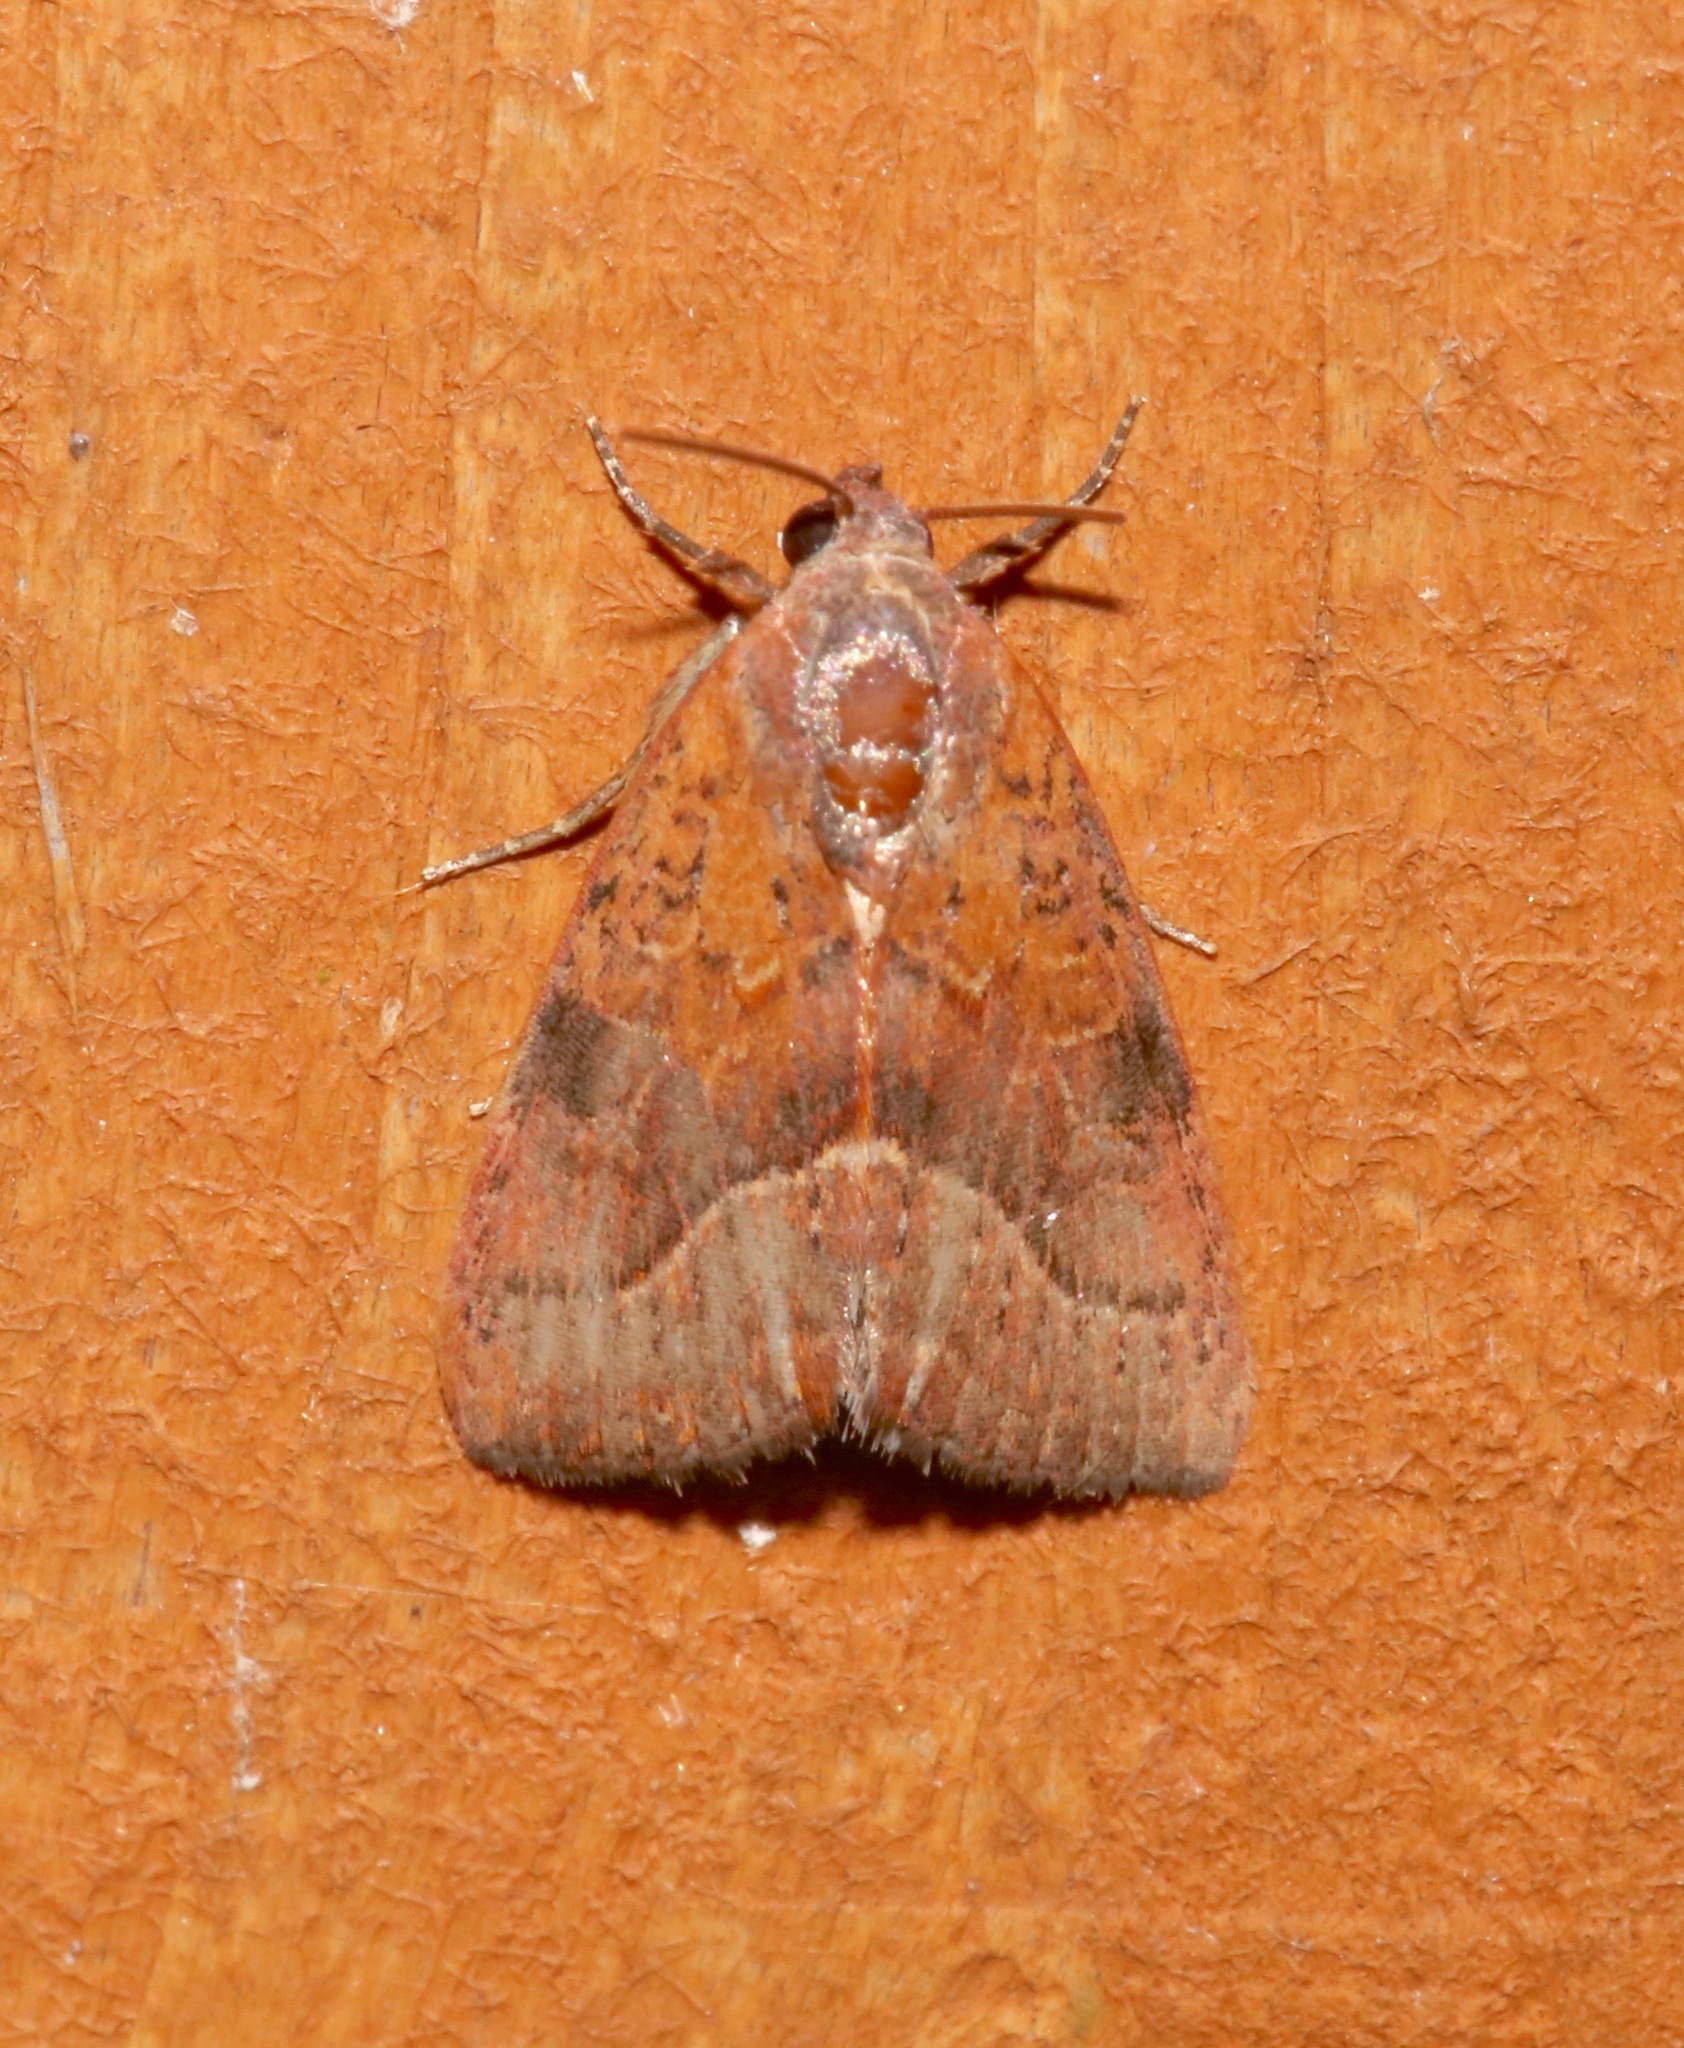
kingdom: Animalia
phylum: Arthropoda
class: Insecta
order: Lepidoptera
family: Noctuidae
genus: Galgula
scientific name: Galgula partita
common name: Wedgeling
